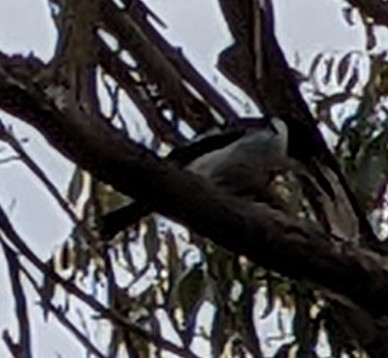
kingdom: Animalia
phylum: Chordata
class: Aves
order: Passeriformes
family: Cracticidae
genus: Cracticus
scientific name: Cracticus torquatus
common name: Grey butcherbird
